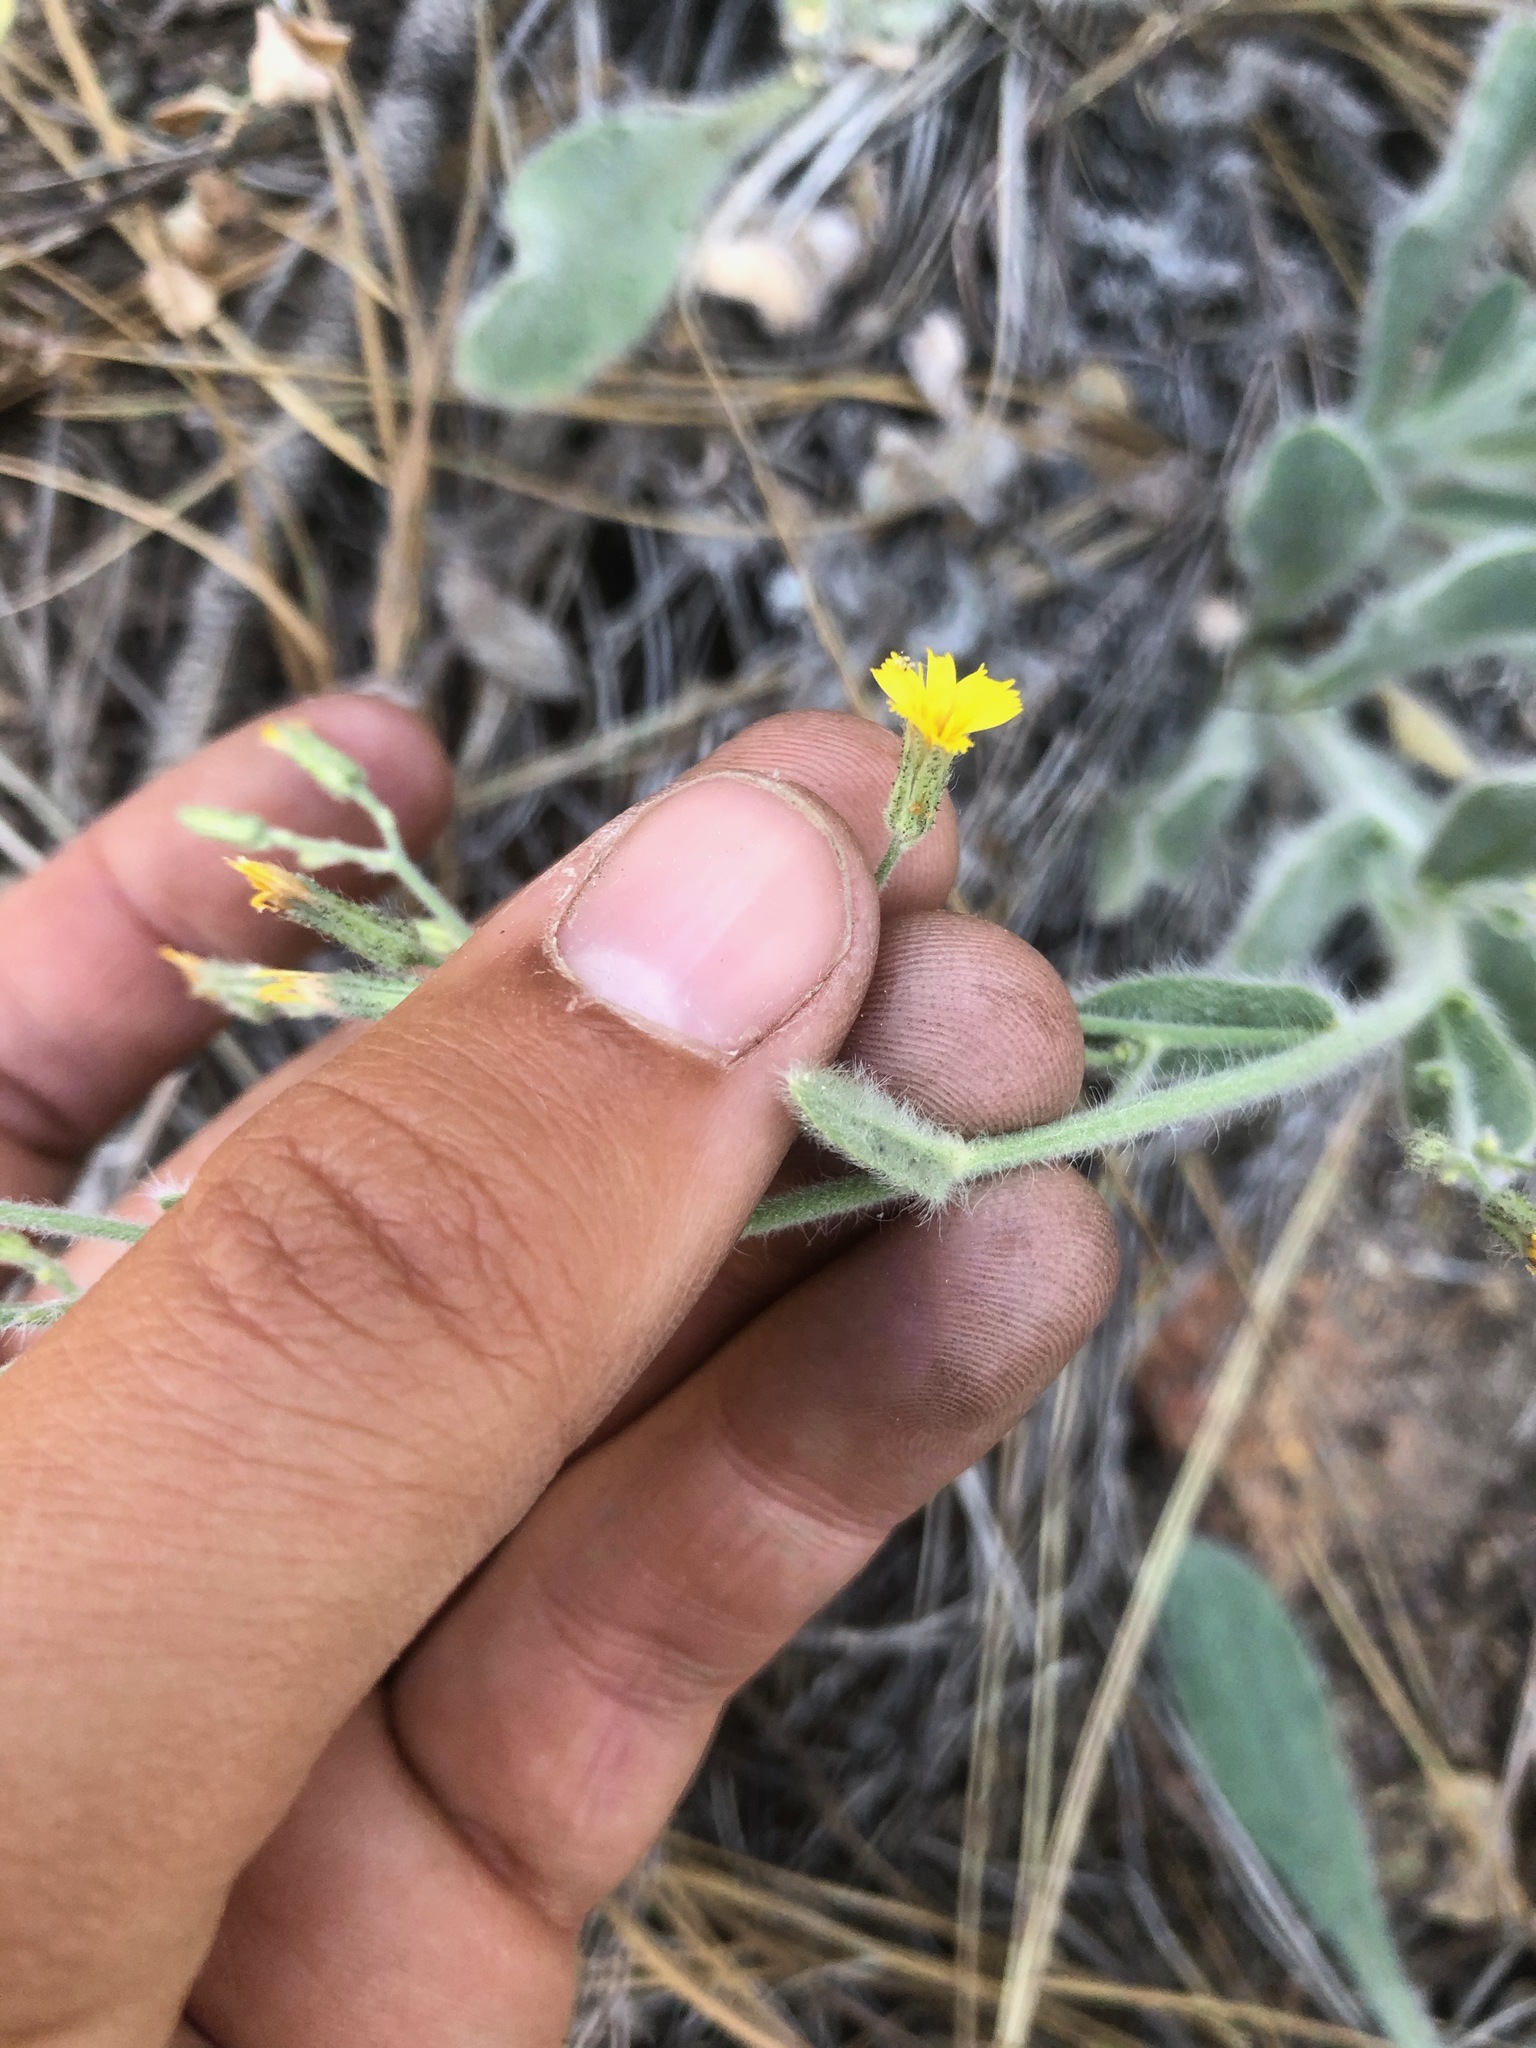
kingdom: Plantae
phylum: Tracheophyta
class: Magnoliopsida
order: Asterales
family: Asteraceae
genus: Hieracium
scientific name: Hieracium horridum
